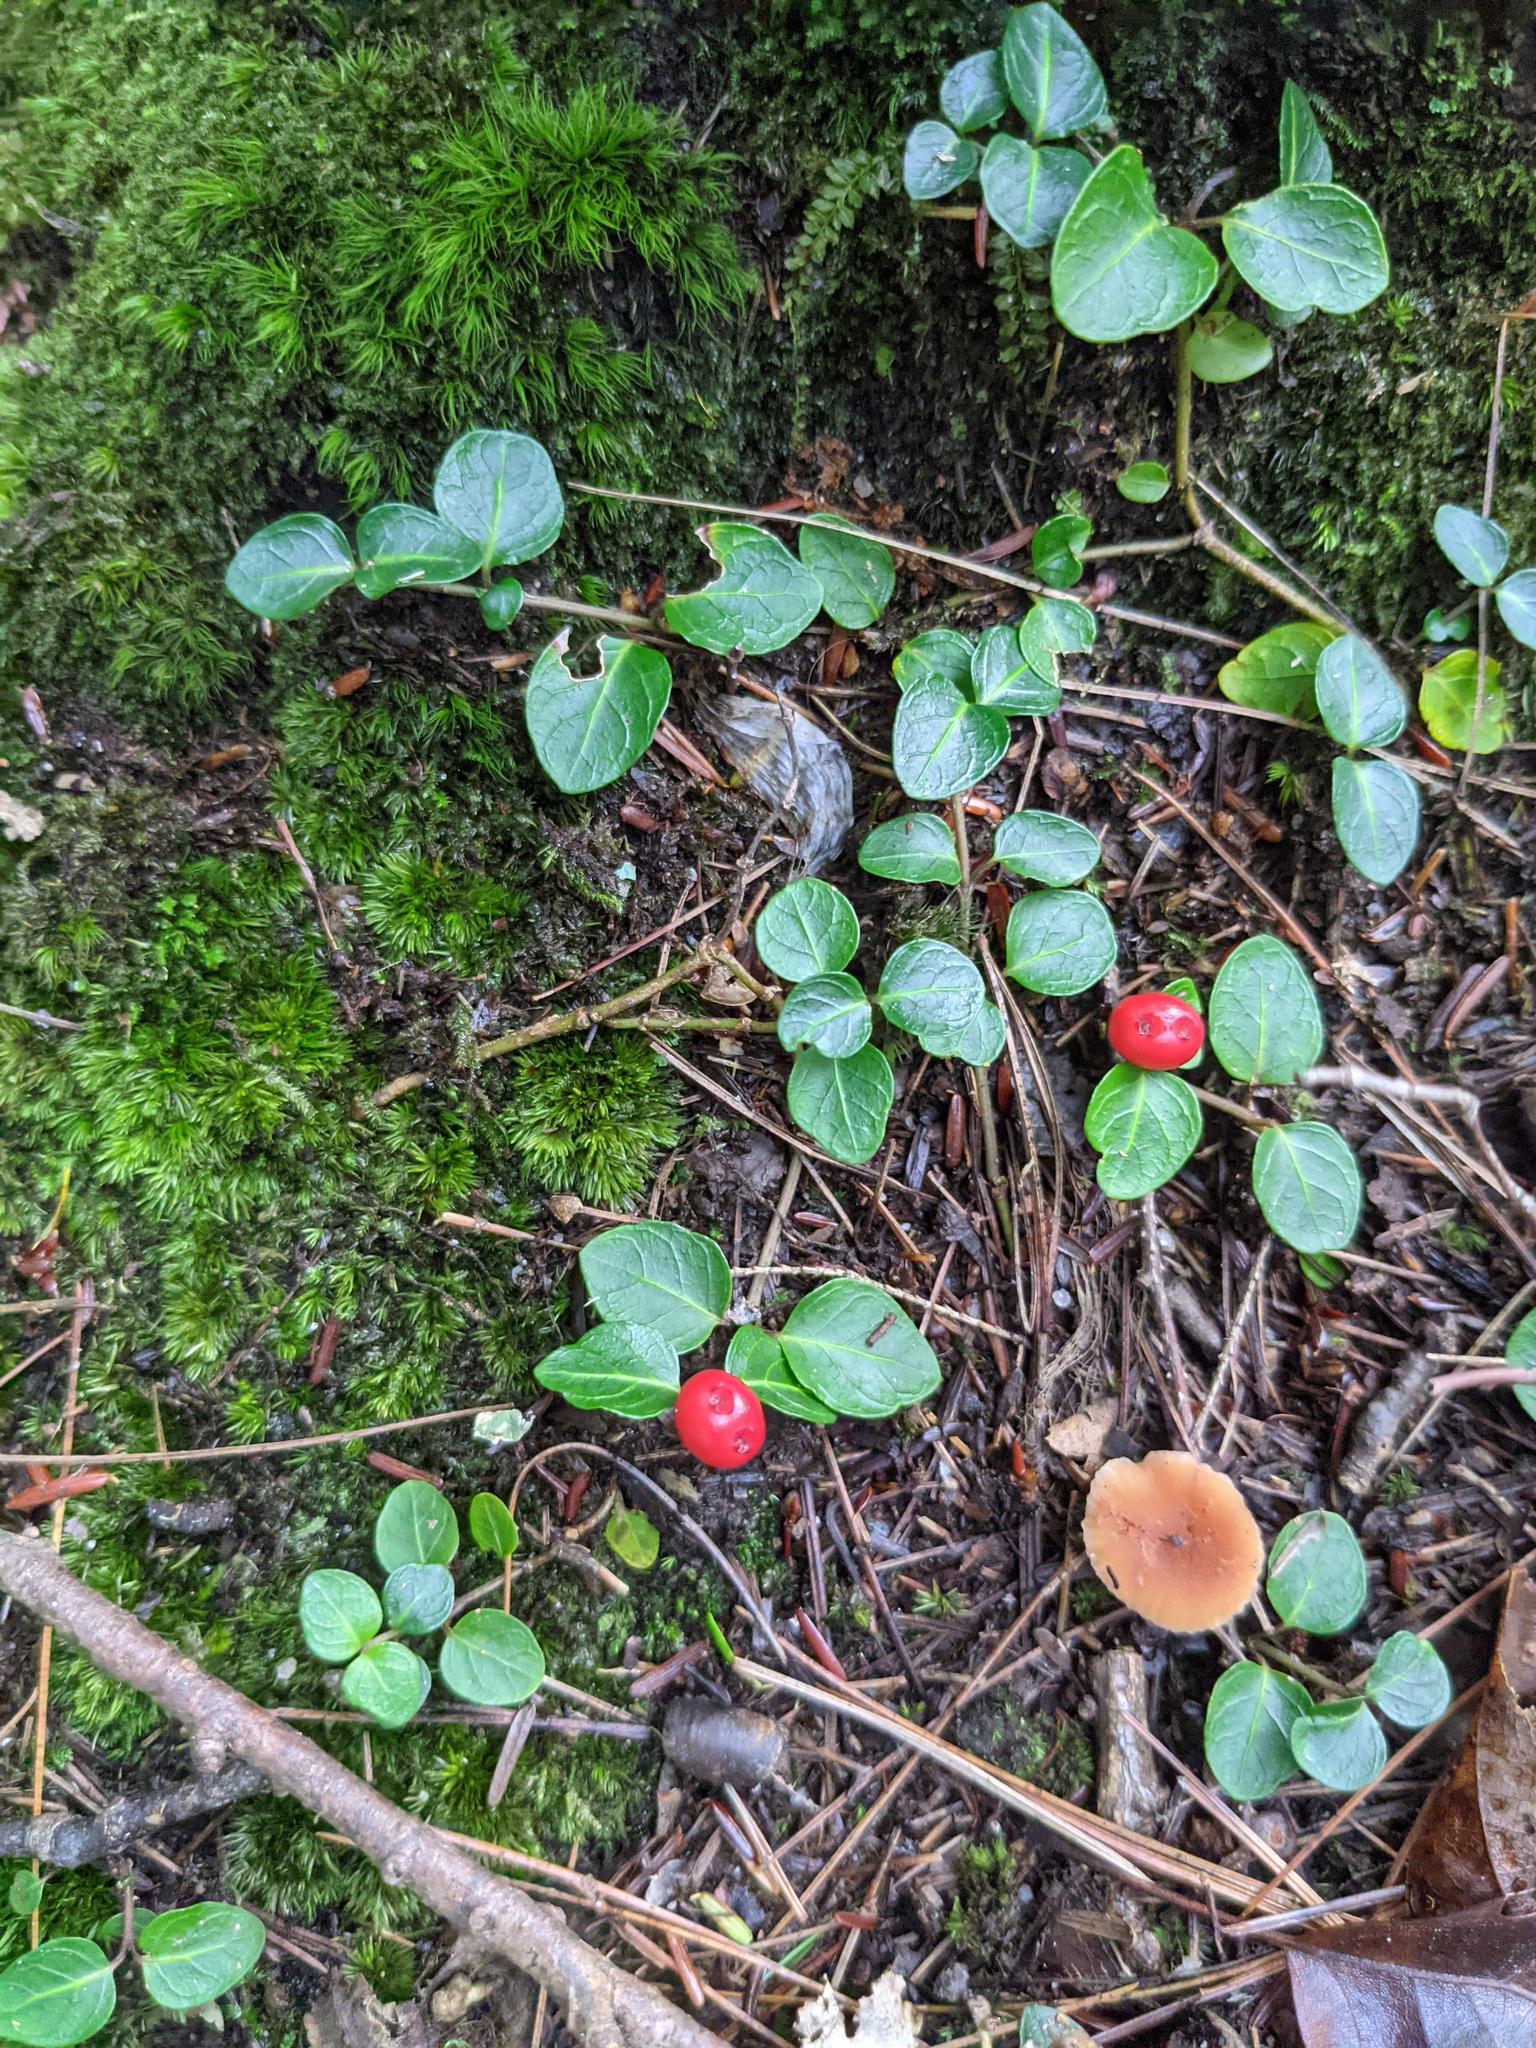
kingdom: Plantae
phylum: Tracheophyta
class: Magnoliopsida
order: Gentianales
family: Rubiaceae
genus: Mitchella
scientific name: Mitchella repens
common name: Partridge-berry
